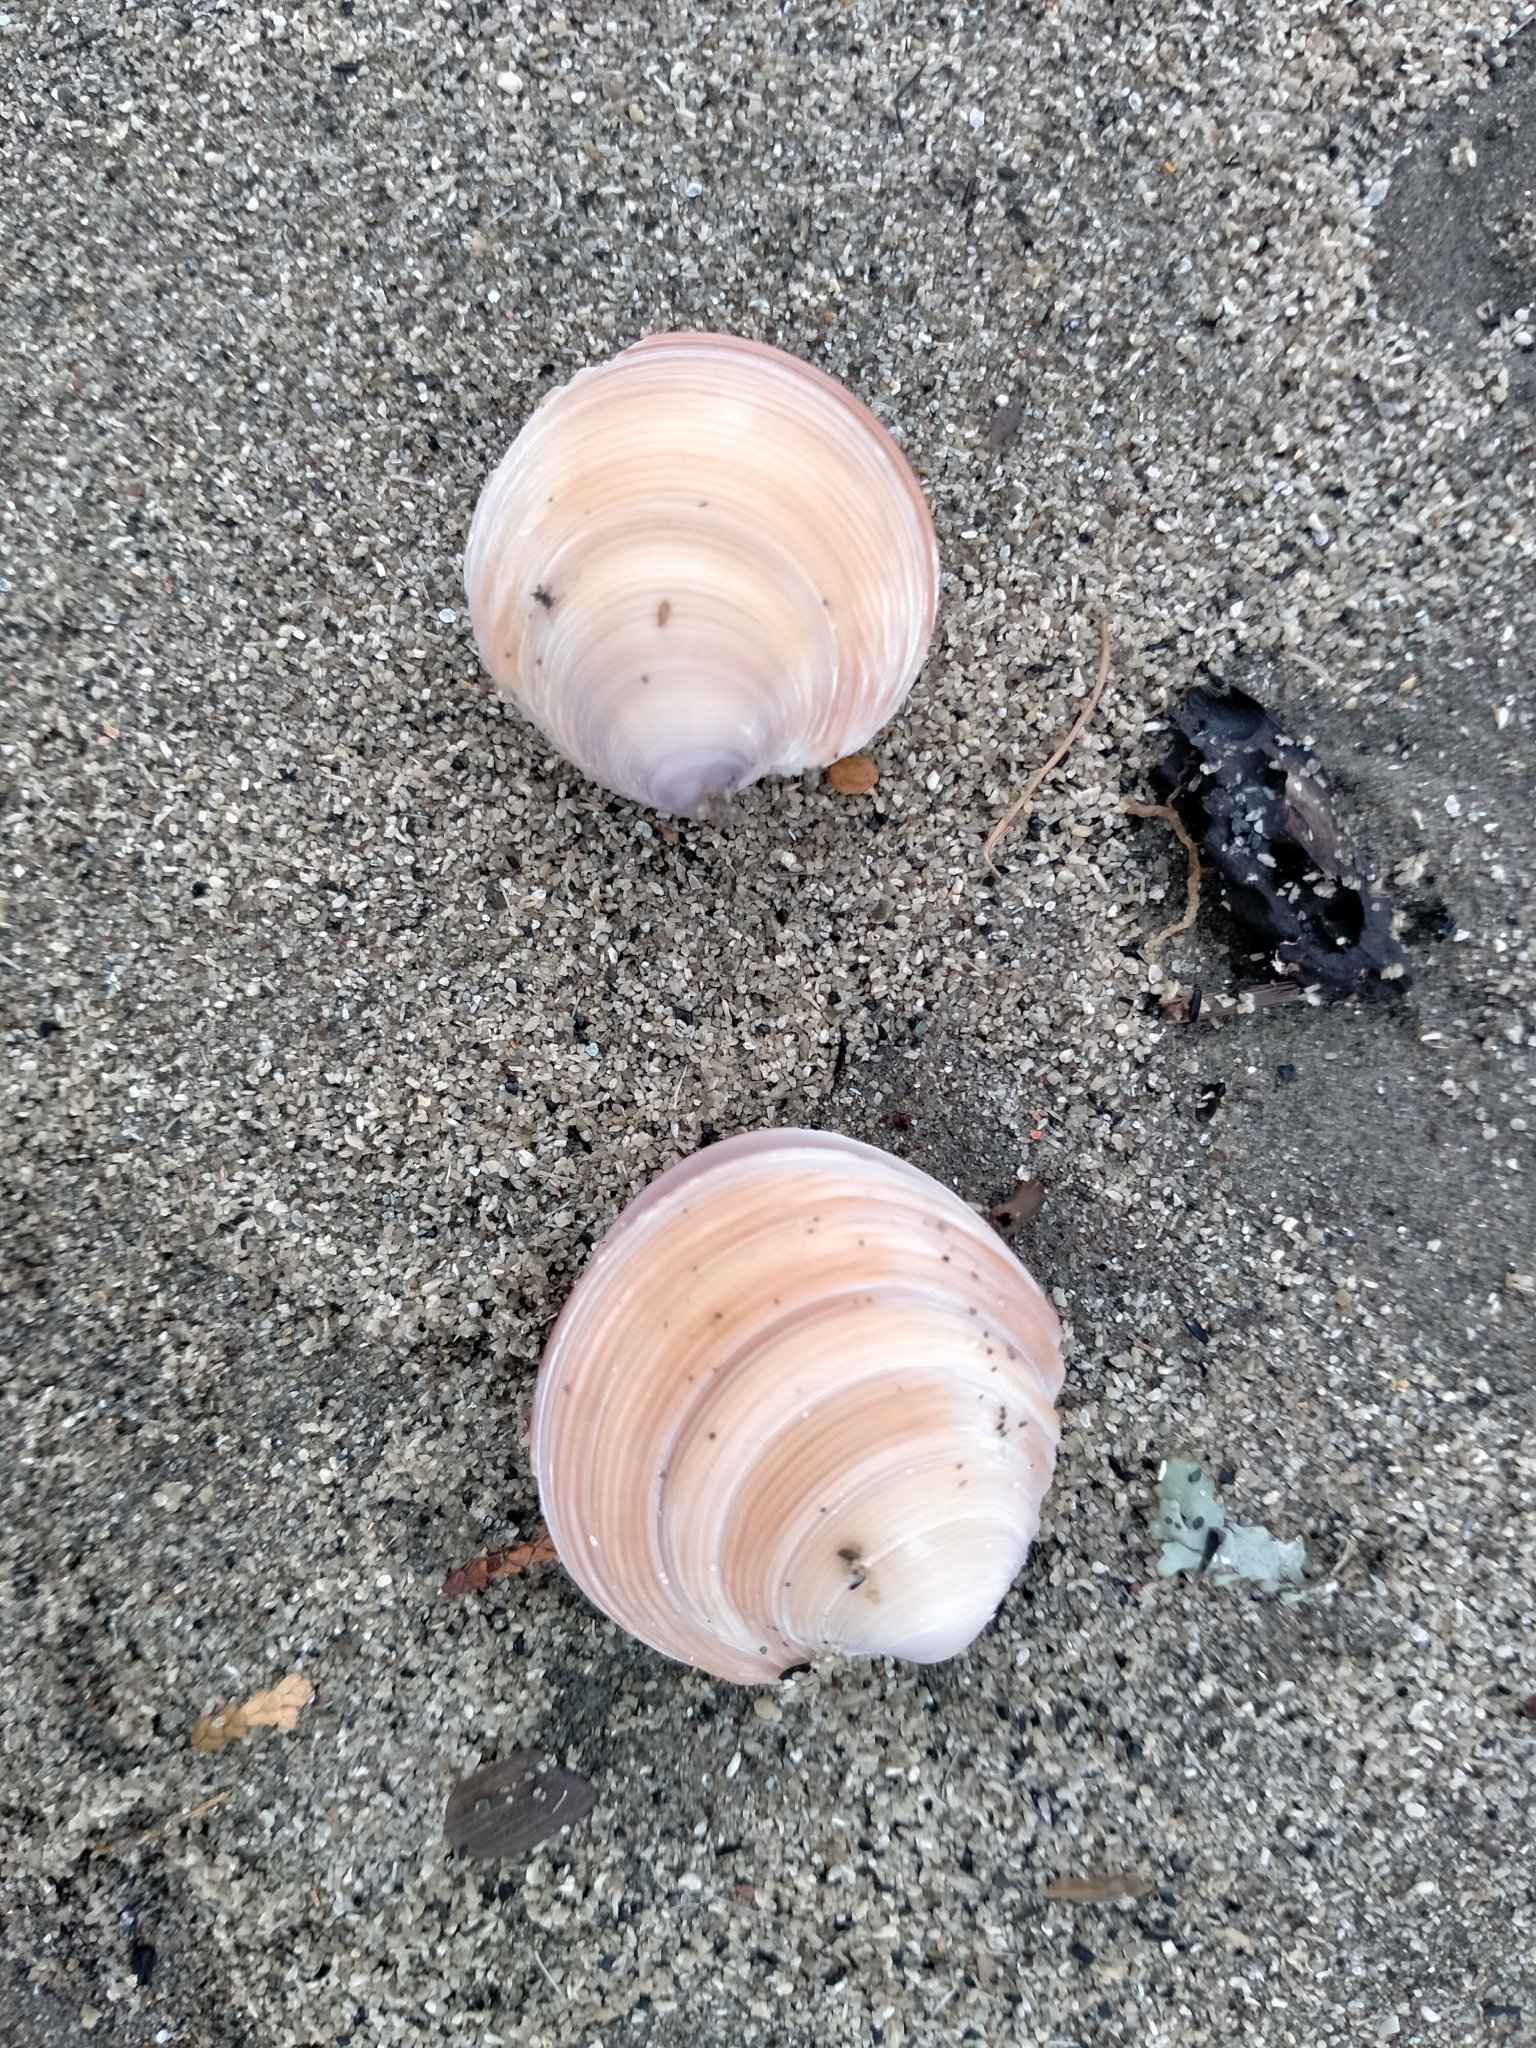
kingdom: Animalia
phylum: Mollusca
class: Bivalvia
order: Venerida
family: Veneridae
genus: Dosinia
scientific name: Dosinia anus
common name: Old-woman dosinia
